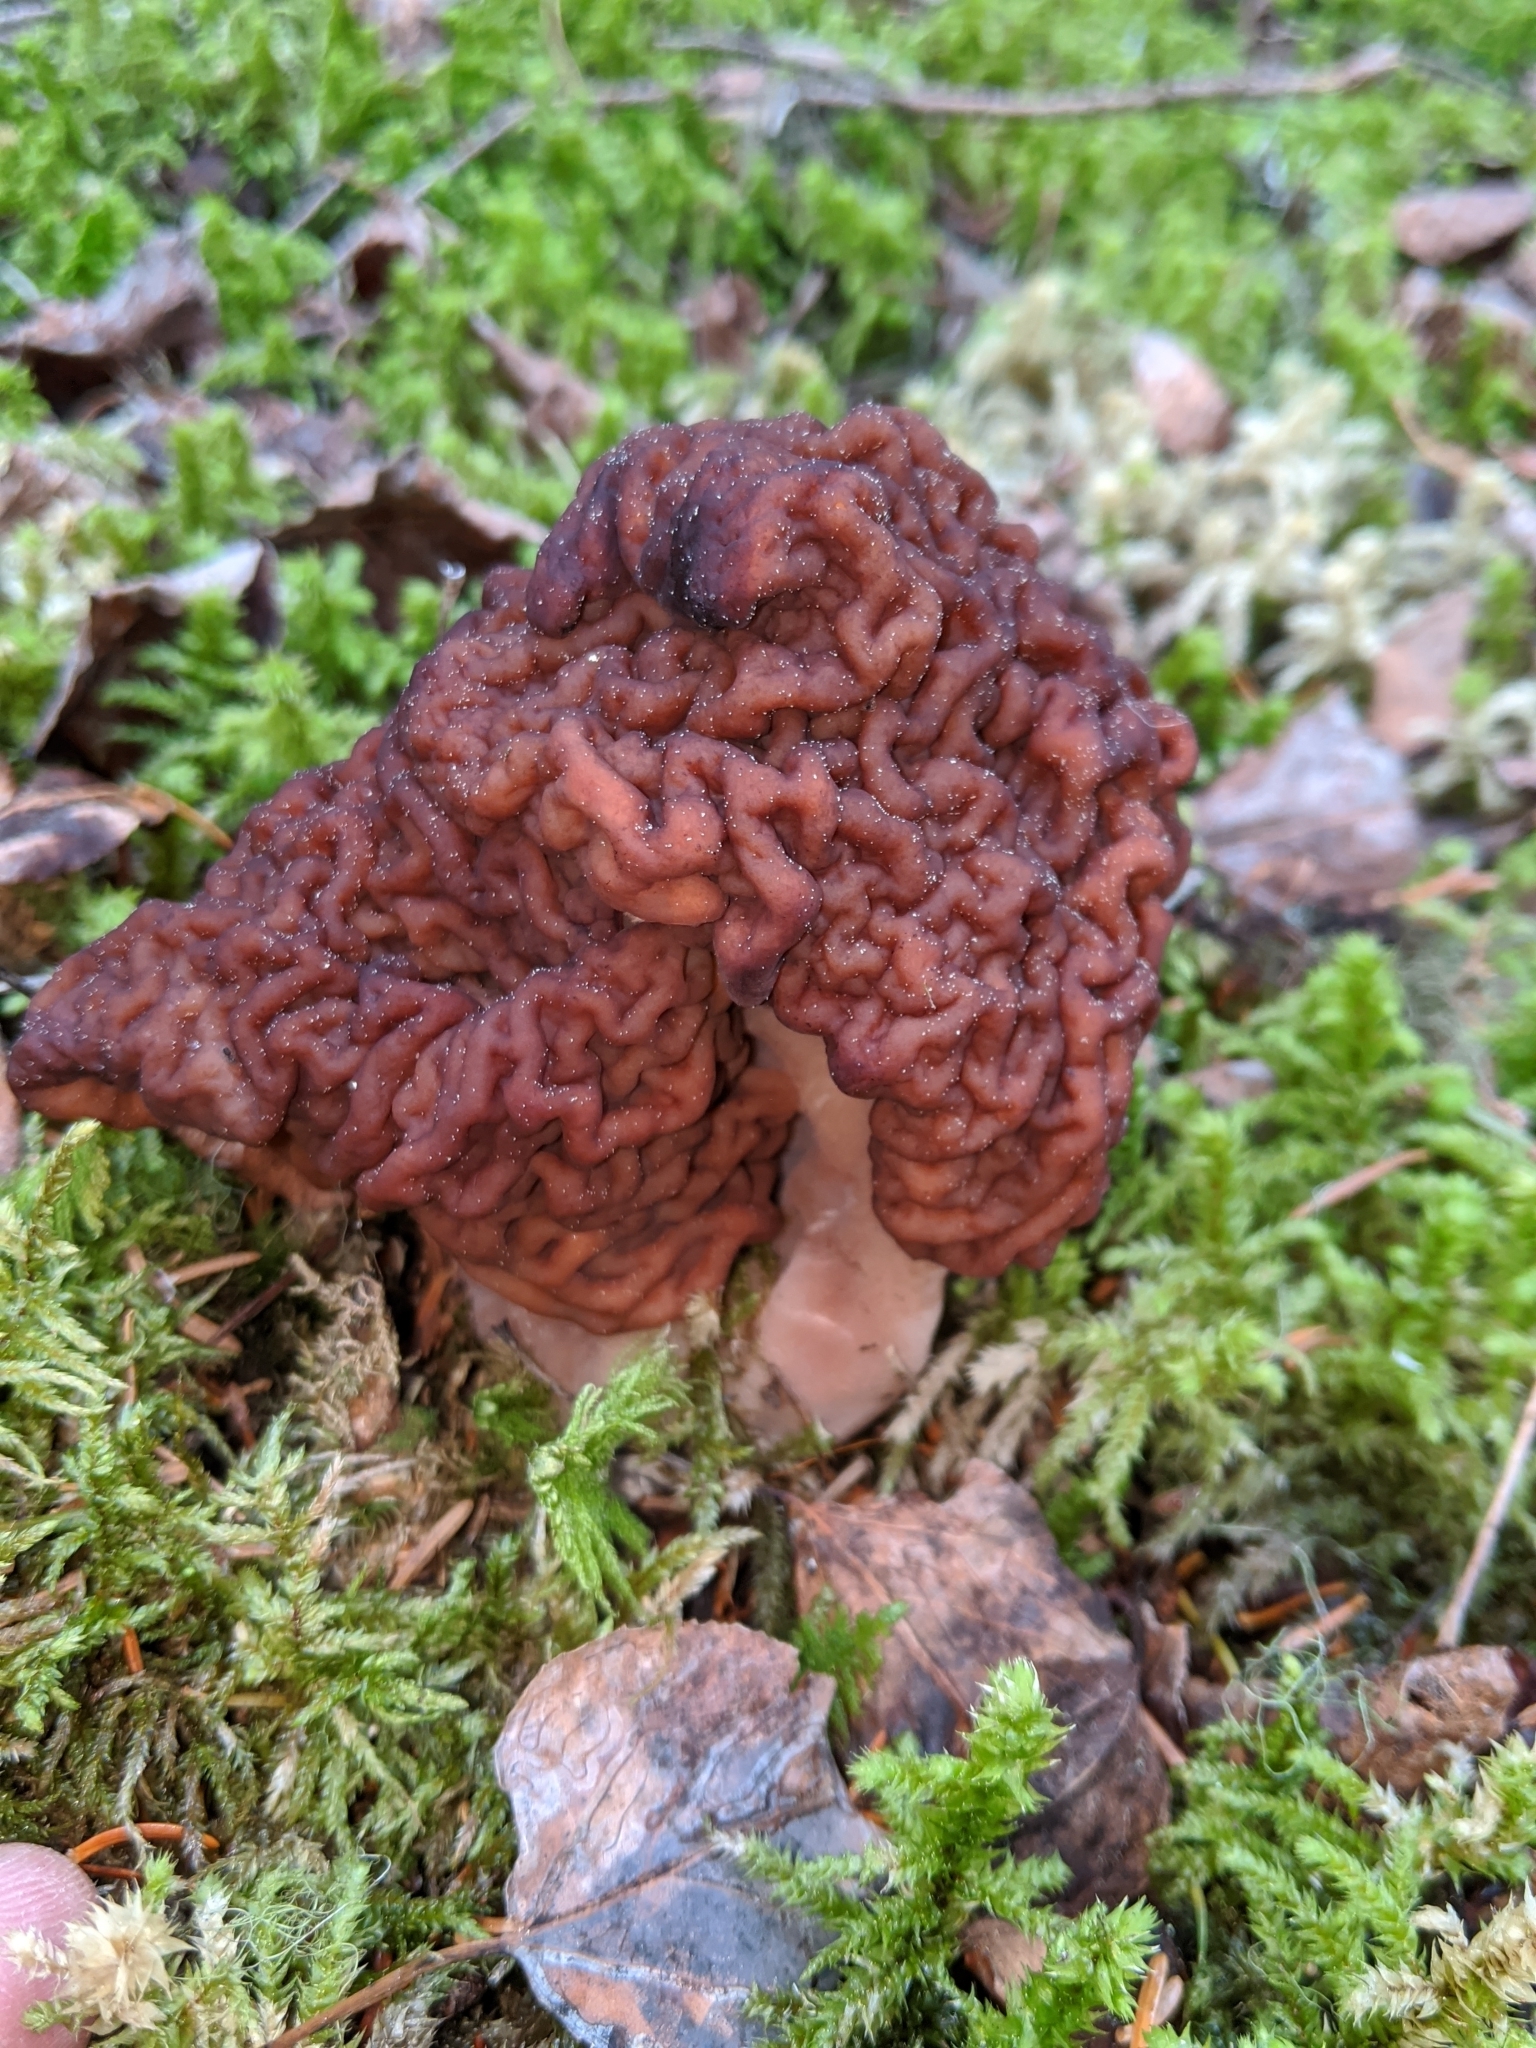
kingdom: Fungi
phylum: Ascomycota
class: Pezizomycetes
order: Pezizales
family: Discinaceae
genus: Gyromitra
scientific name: Gyromitra esculenta
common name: False morel
